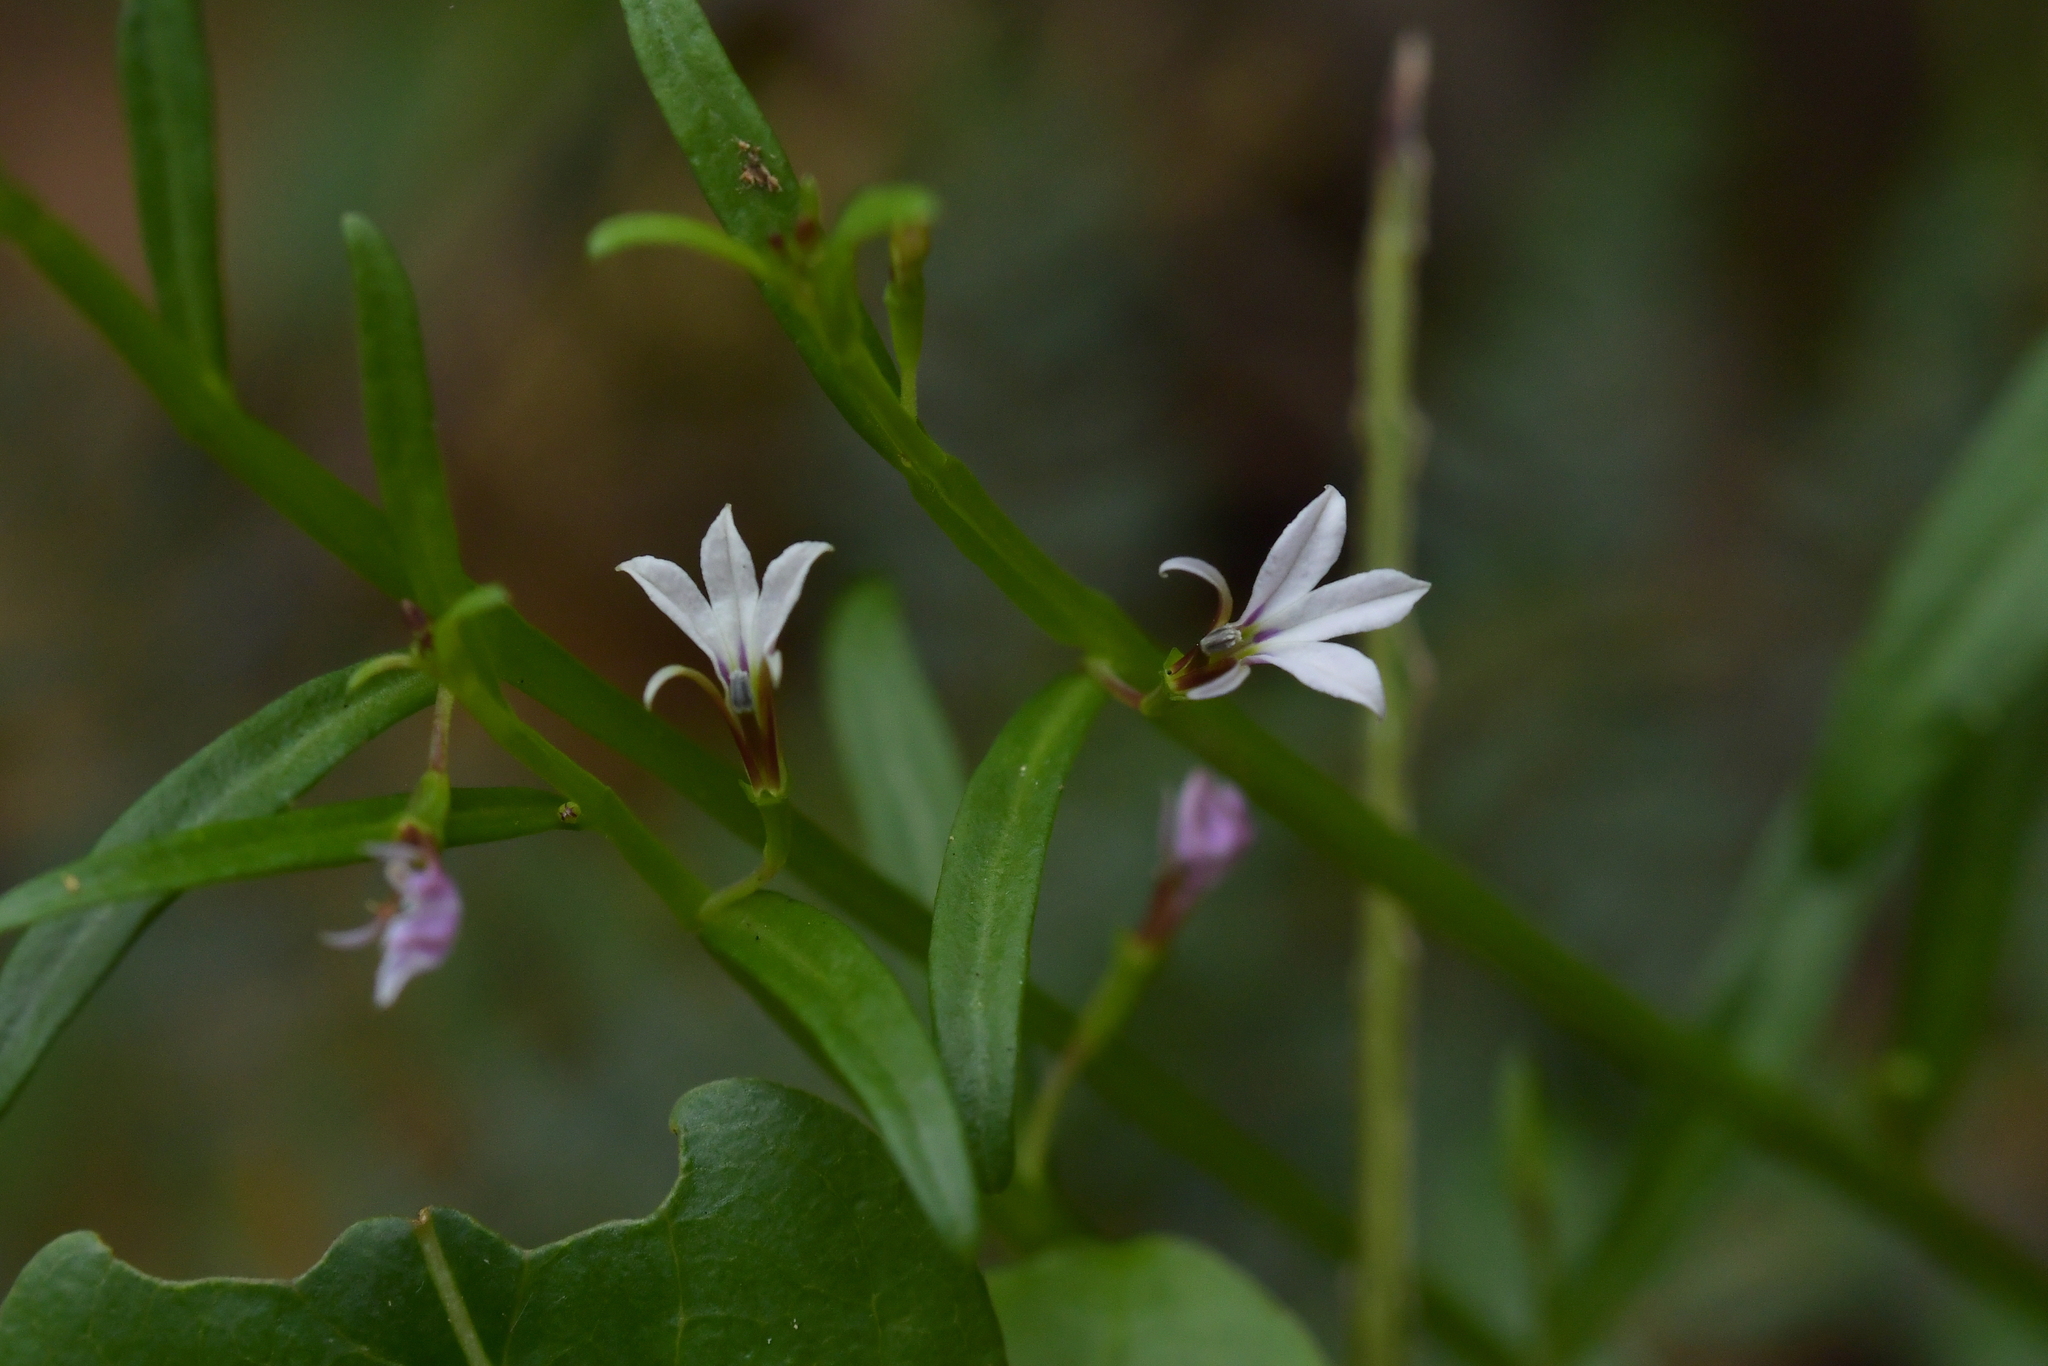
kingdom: Plantae
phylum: Tracheophyta
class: Magnoliopsida
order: Asterales
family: Campanulaceae
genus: Lobelia
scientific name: Lobelia anceps
